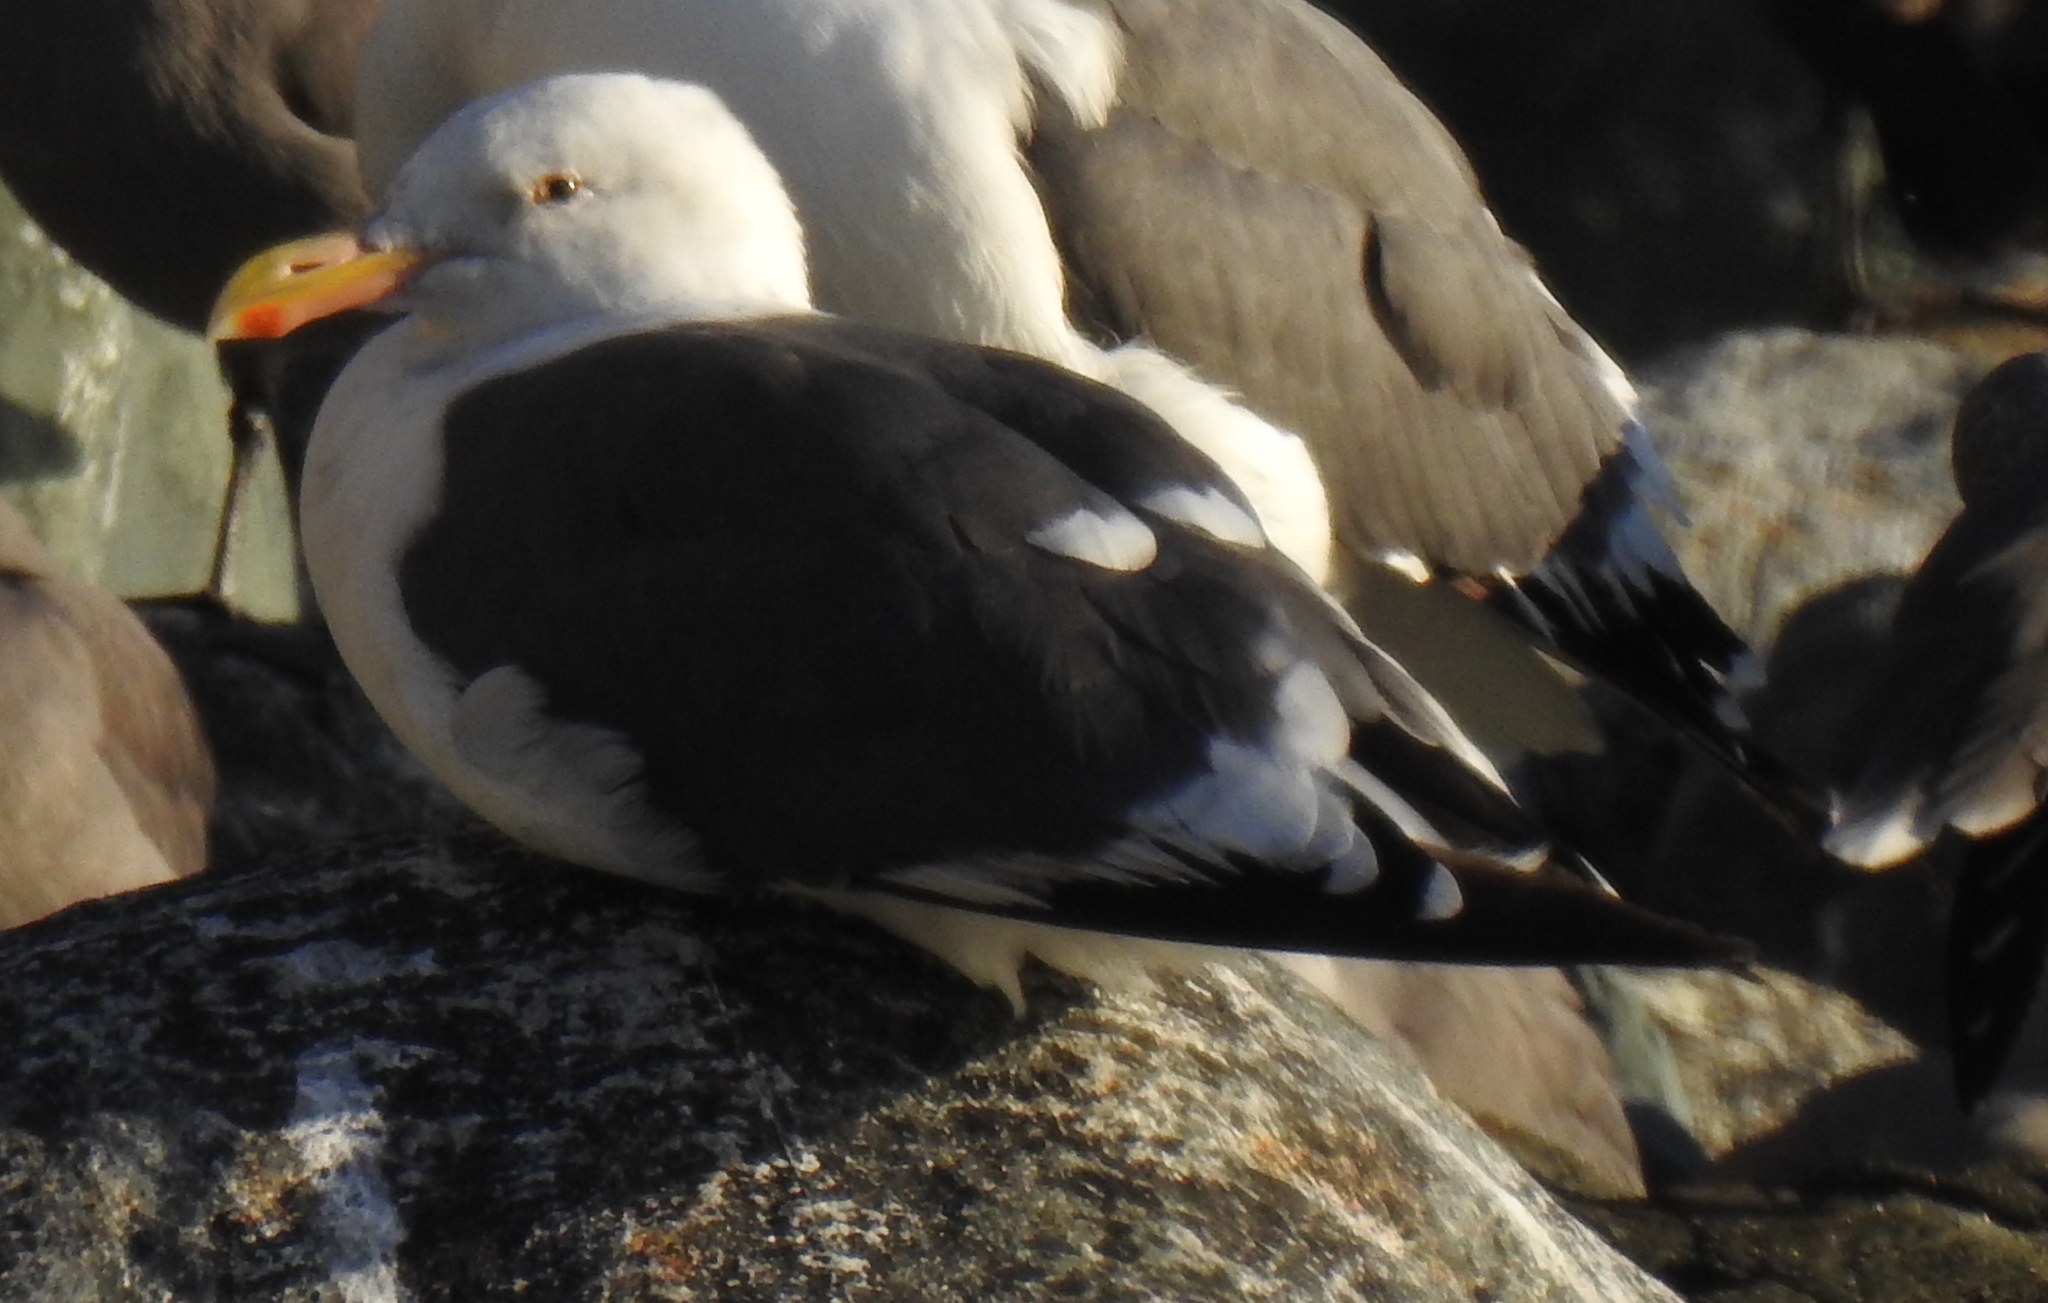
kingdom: Animalia
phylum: Chordata
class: Aves
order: Charadriiformes
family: Laridae
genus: Larus
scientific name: Larus occidentalis
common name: Western gull
